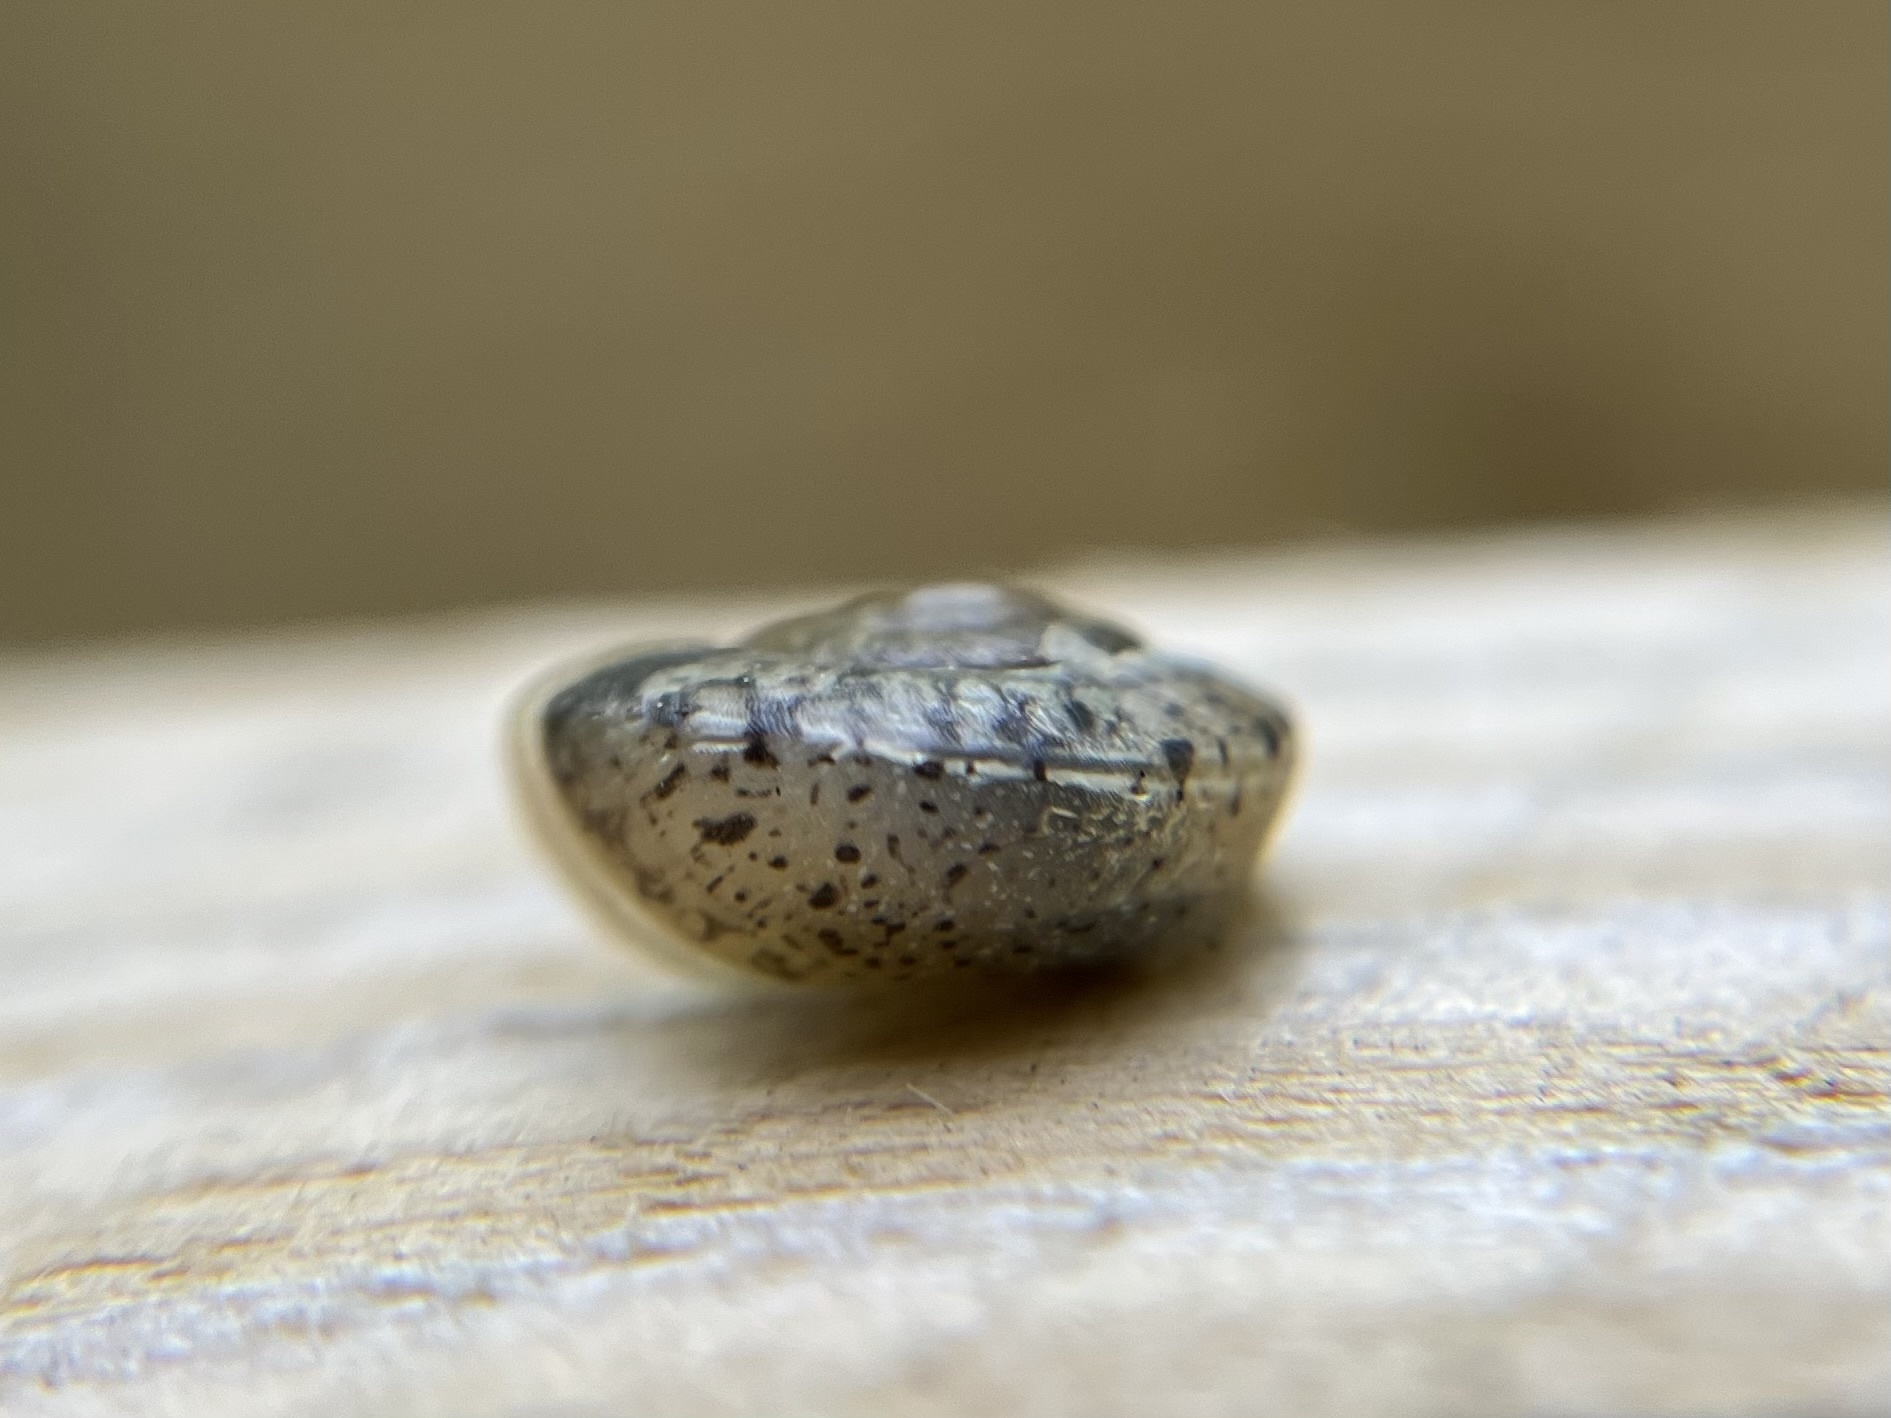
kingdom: Animalia
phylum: Mollusca
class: Gastropoda
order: Stylommatophora
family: Hygromiidae
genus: Urticicola
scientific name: Urticicola umbrosus
